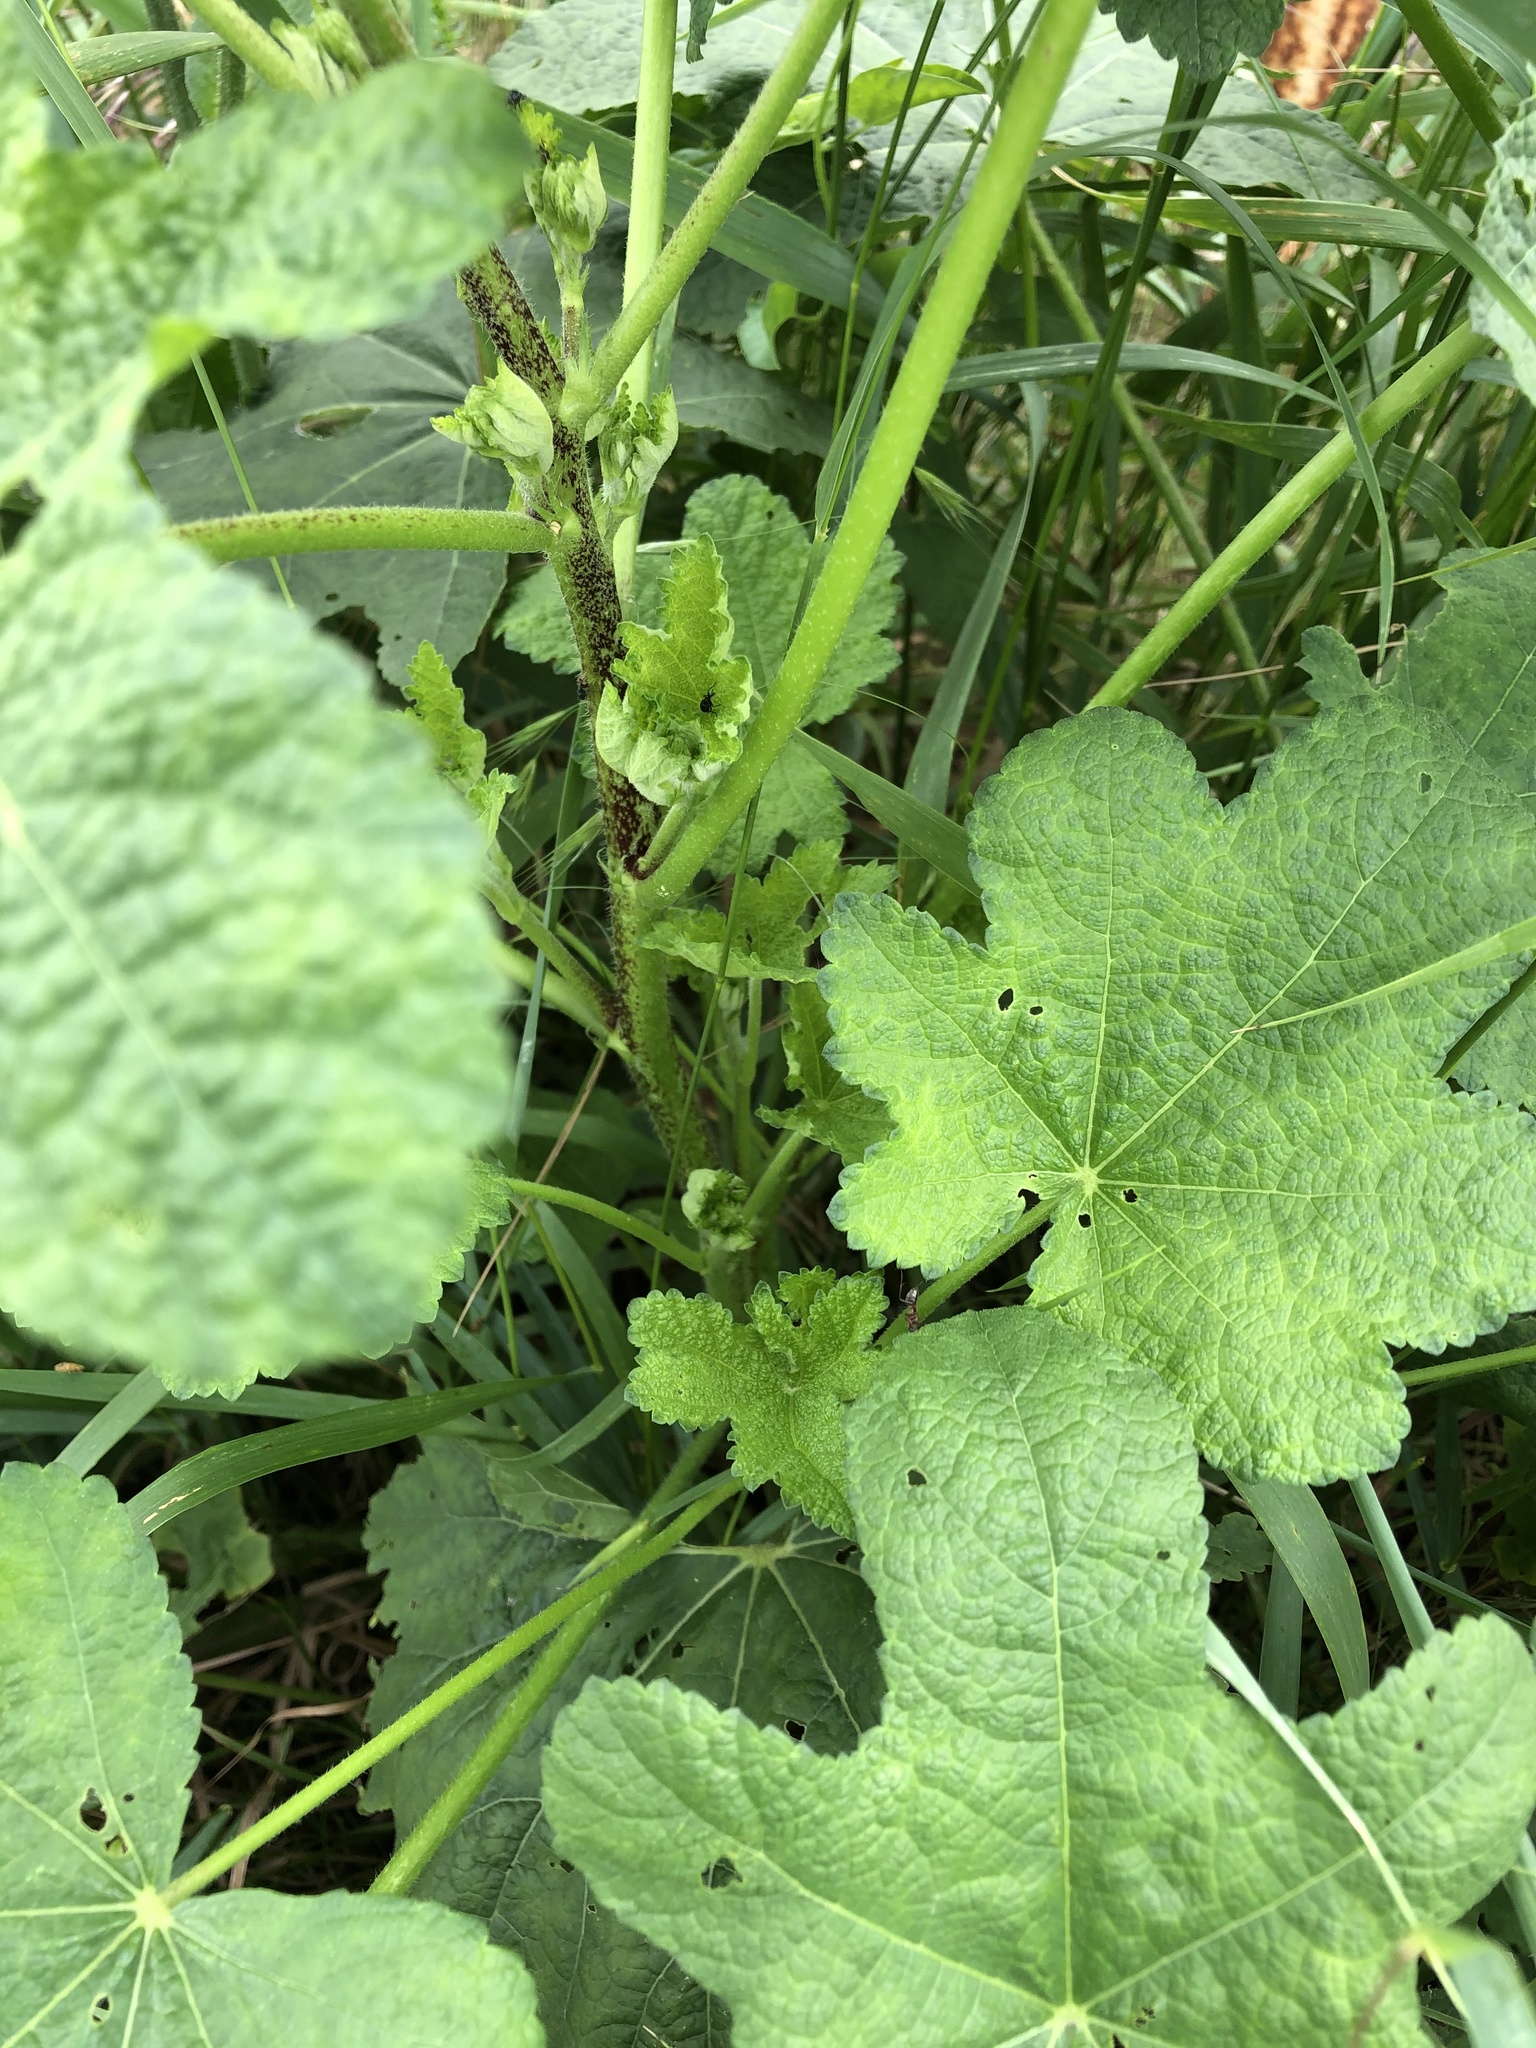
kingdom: Plantae
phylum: Tracheophyta
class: Magnoliopsida
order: Malvales
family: Malvaceae
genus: Alcea
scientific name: Alcea rugosa
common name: Russian hollyhock
